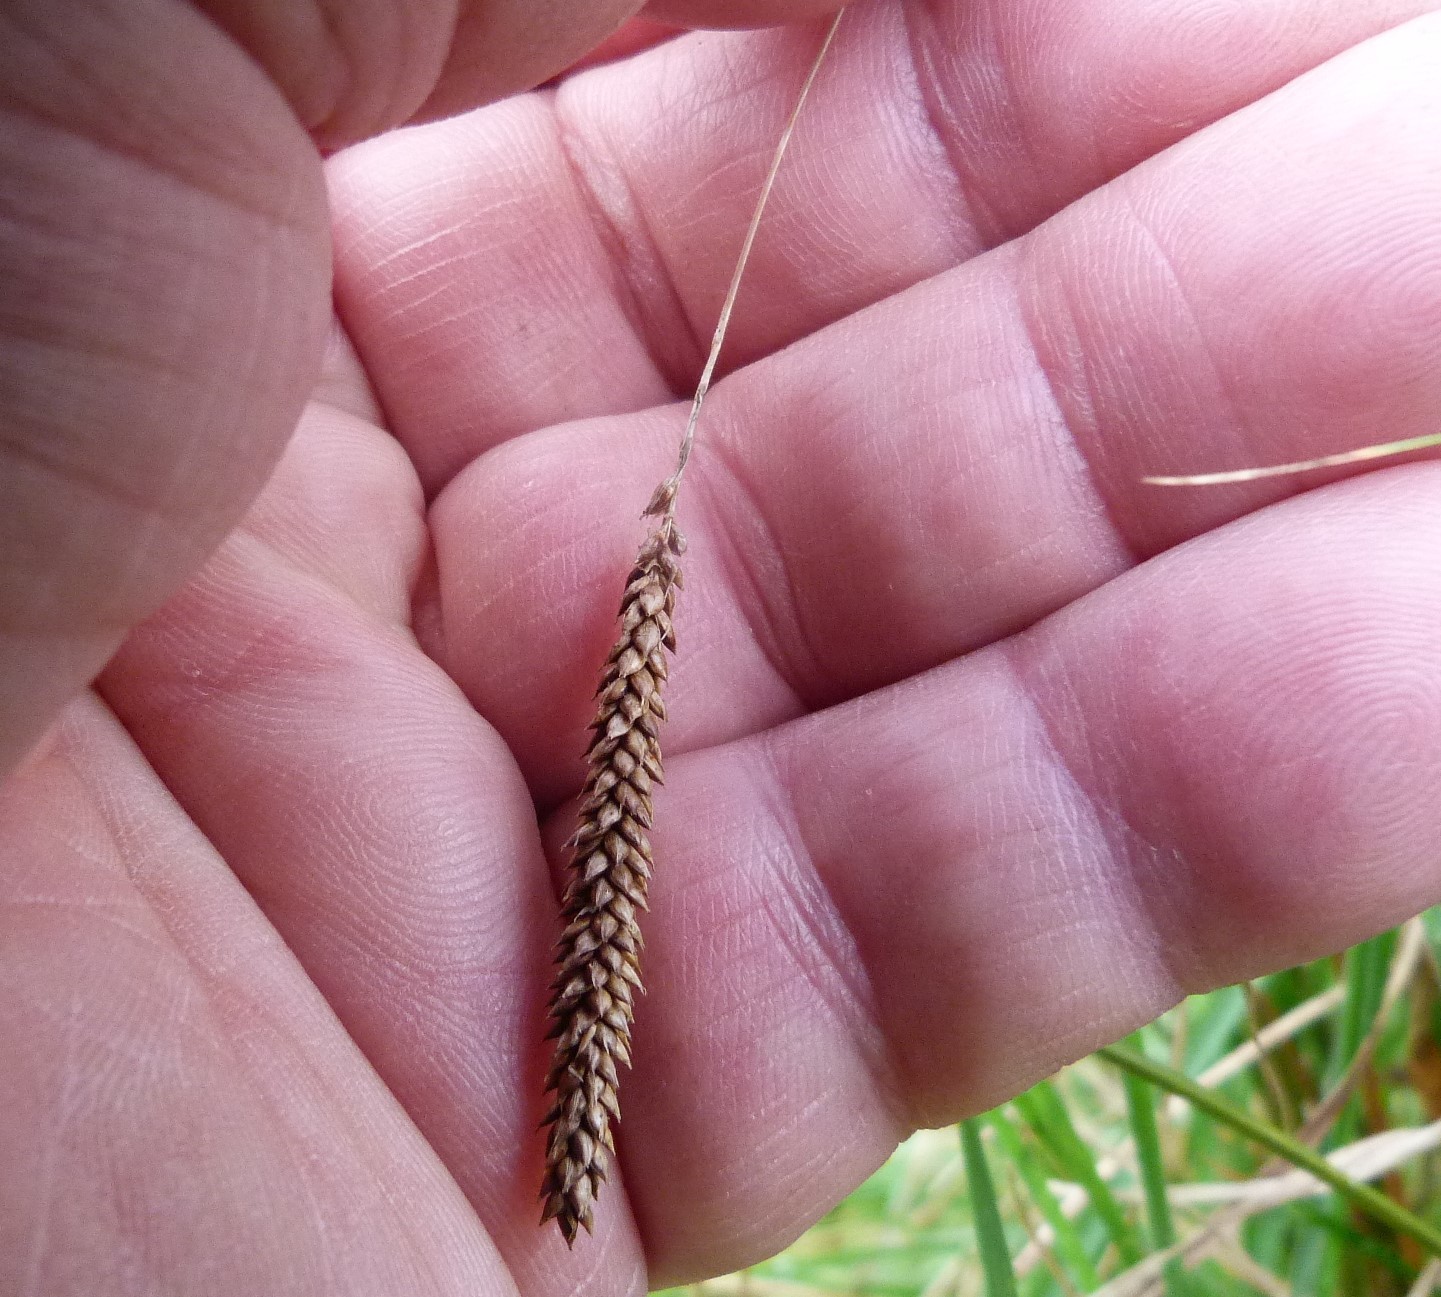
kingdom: Plantae
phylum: Tracheophyta
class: Liliopsida
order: Poales
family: Cyperaceae
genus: Carex
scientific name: Carex flagellifera
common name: Glen murray tussock
